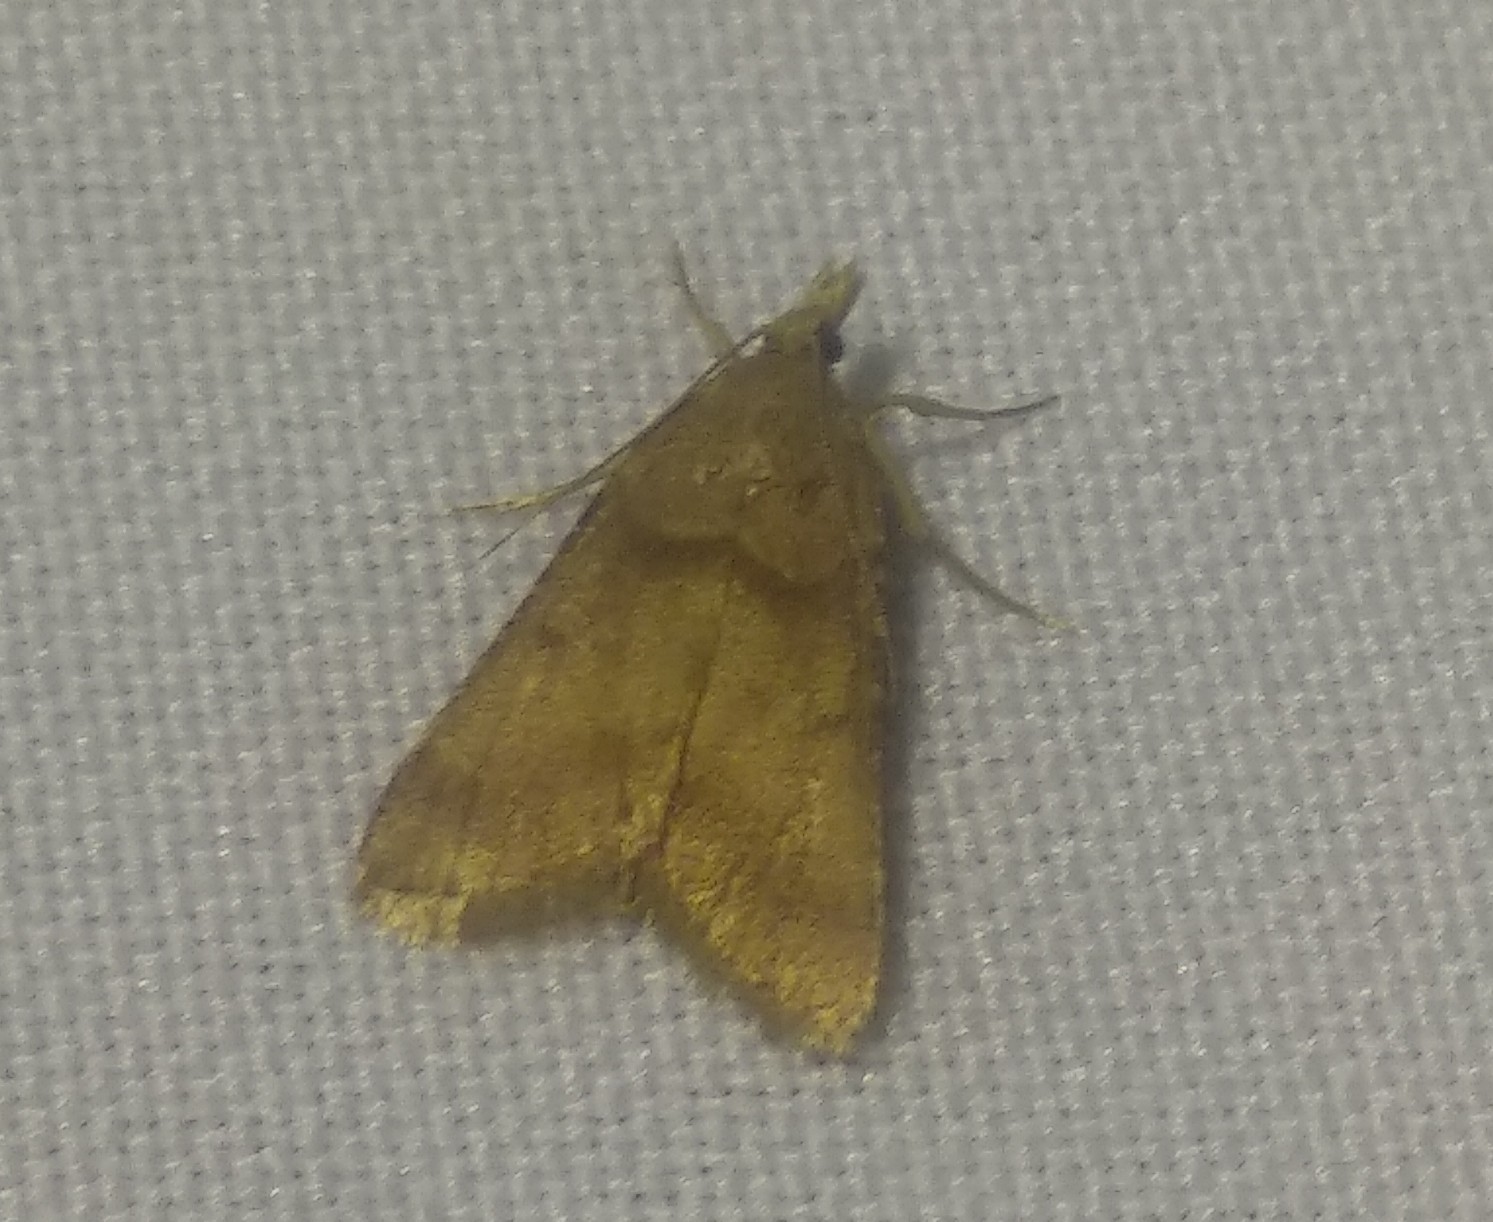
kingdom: Animalia
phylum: Arthropoda
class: Insecta
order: Lepidoptera
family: Pyralidae
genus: Stemmatophora
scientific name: Stemmatophora brunnealis
